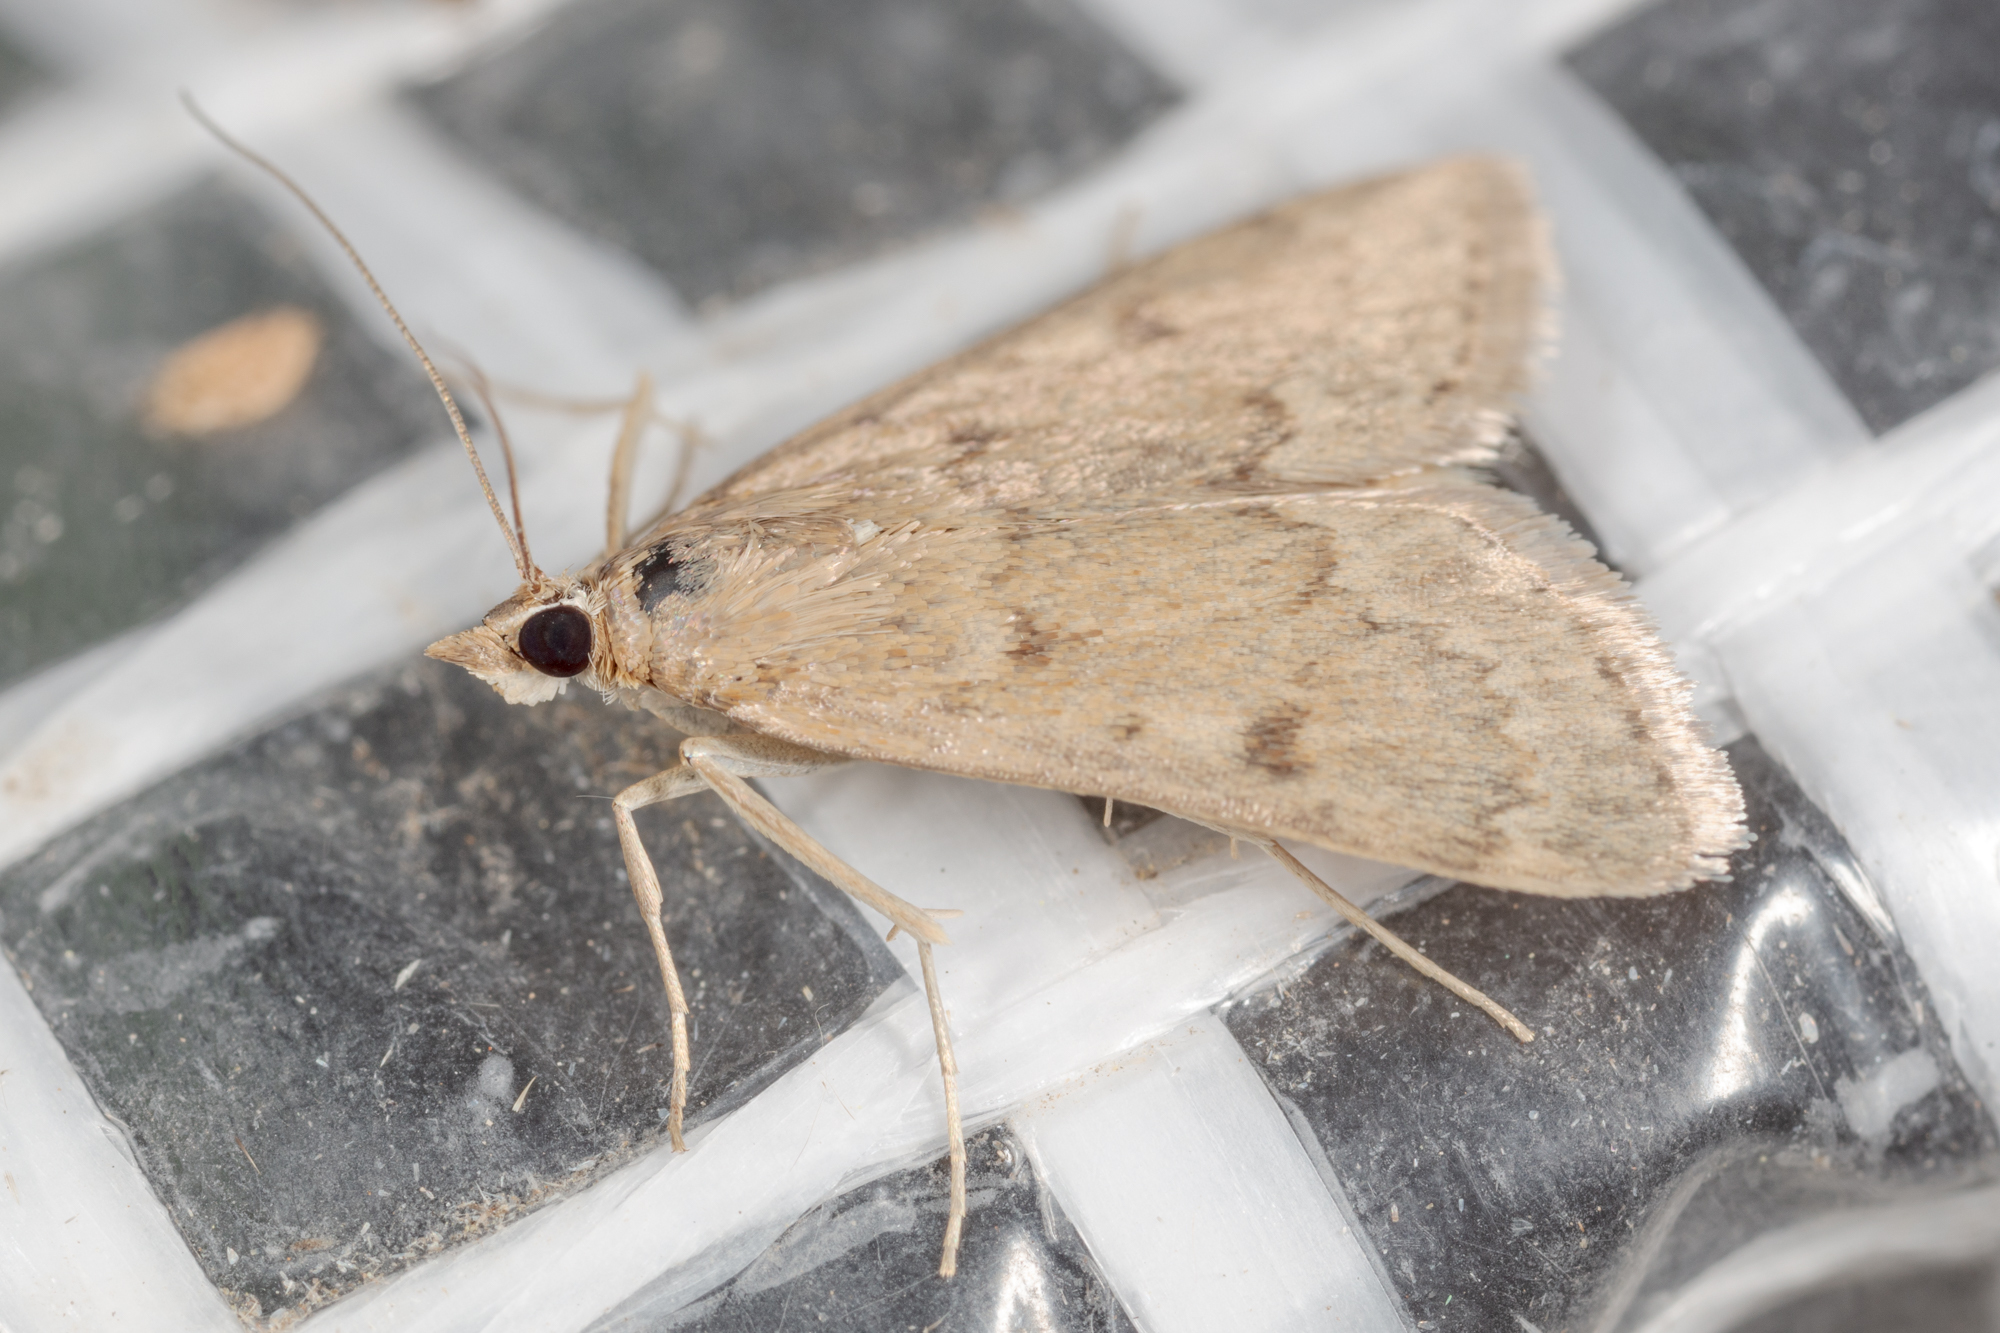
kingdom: Animalia
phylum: Arthropoda
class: Insecta
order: Lepidoptera
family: Crambidae
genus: Achyra
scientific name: Achyra rantalis
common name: Garden webworm
